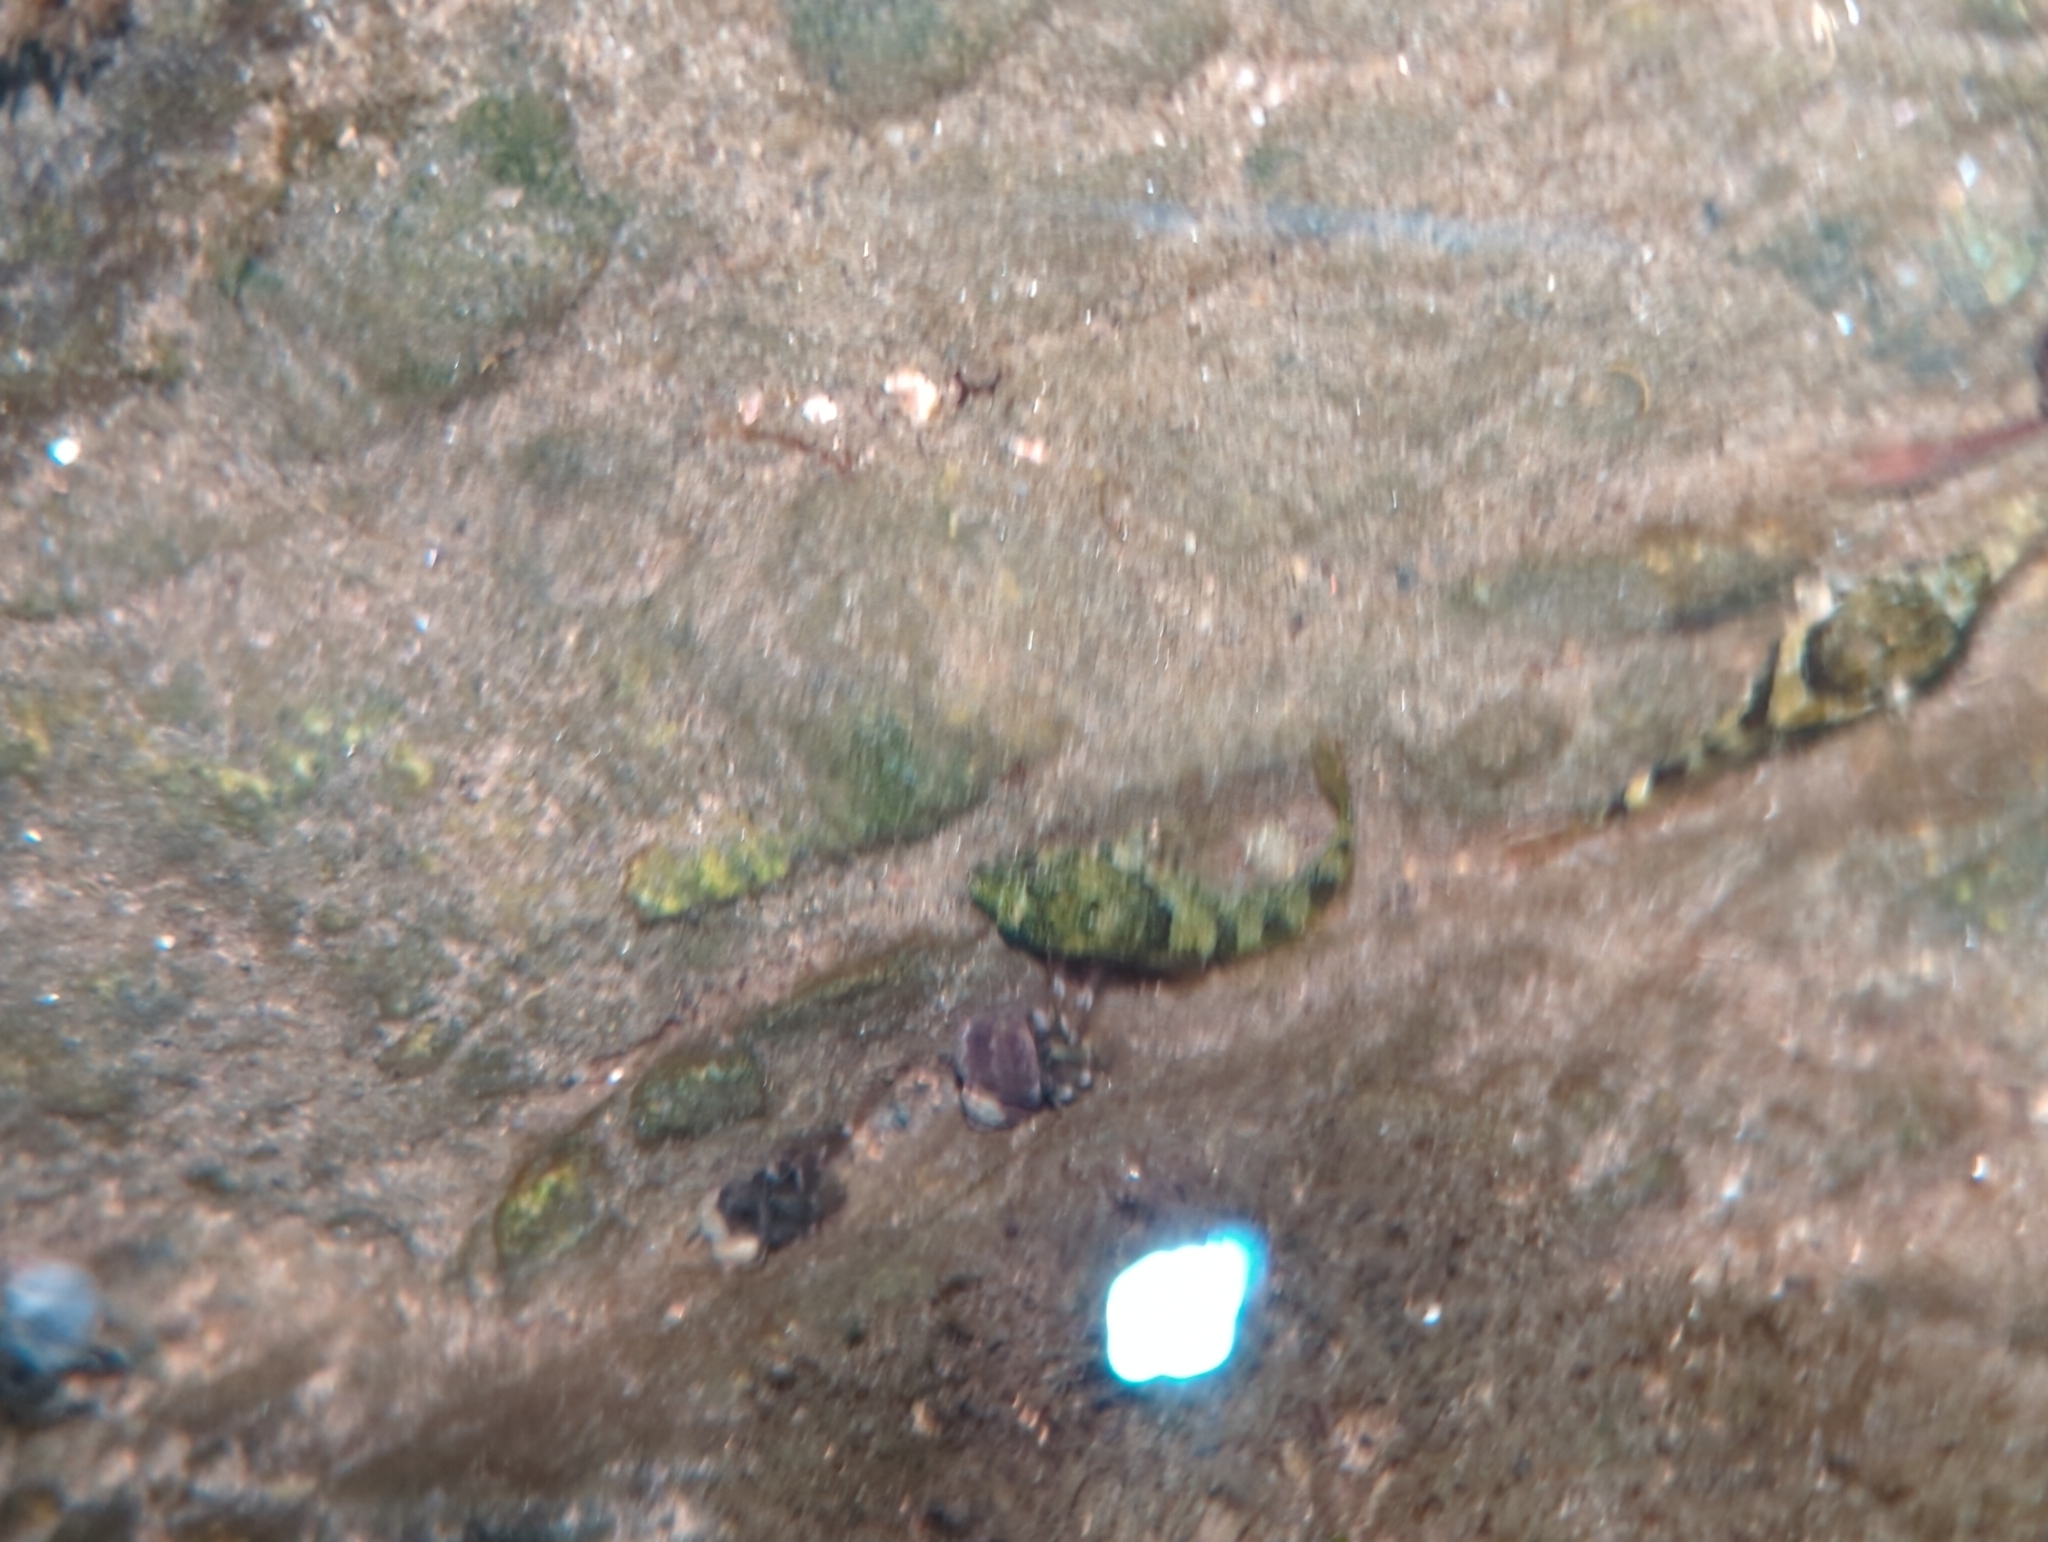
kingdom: Animalia
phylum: Chordata
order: Scorpaeniformes
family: Cottidae
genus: Oligocottus
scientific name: Oligocottus maculosus
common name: Tidepool sculpin
